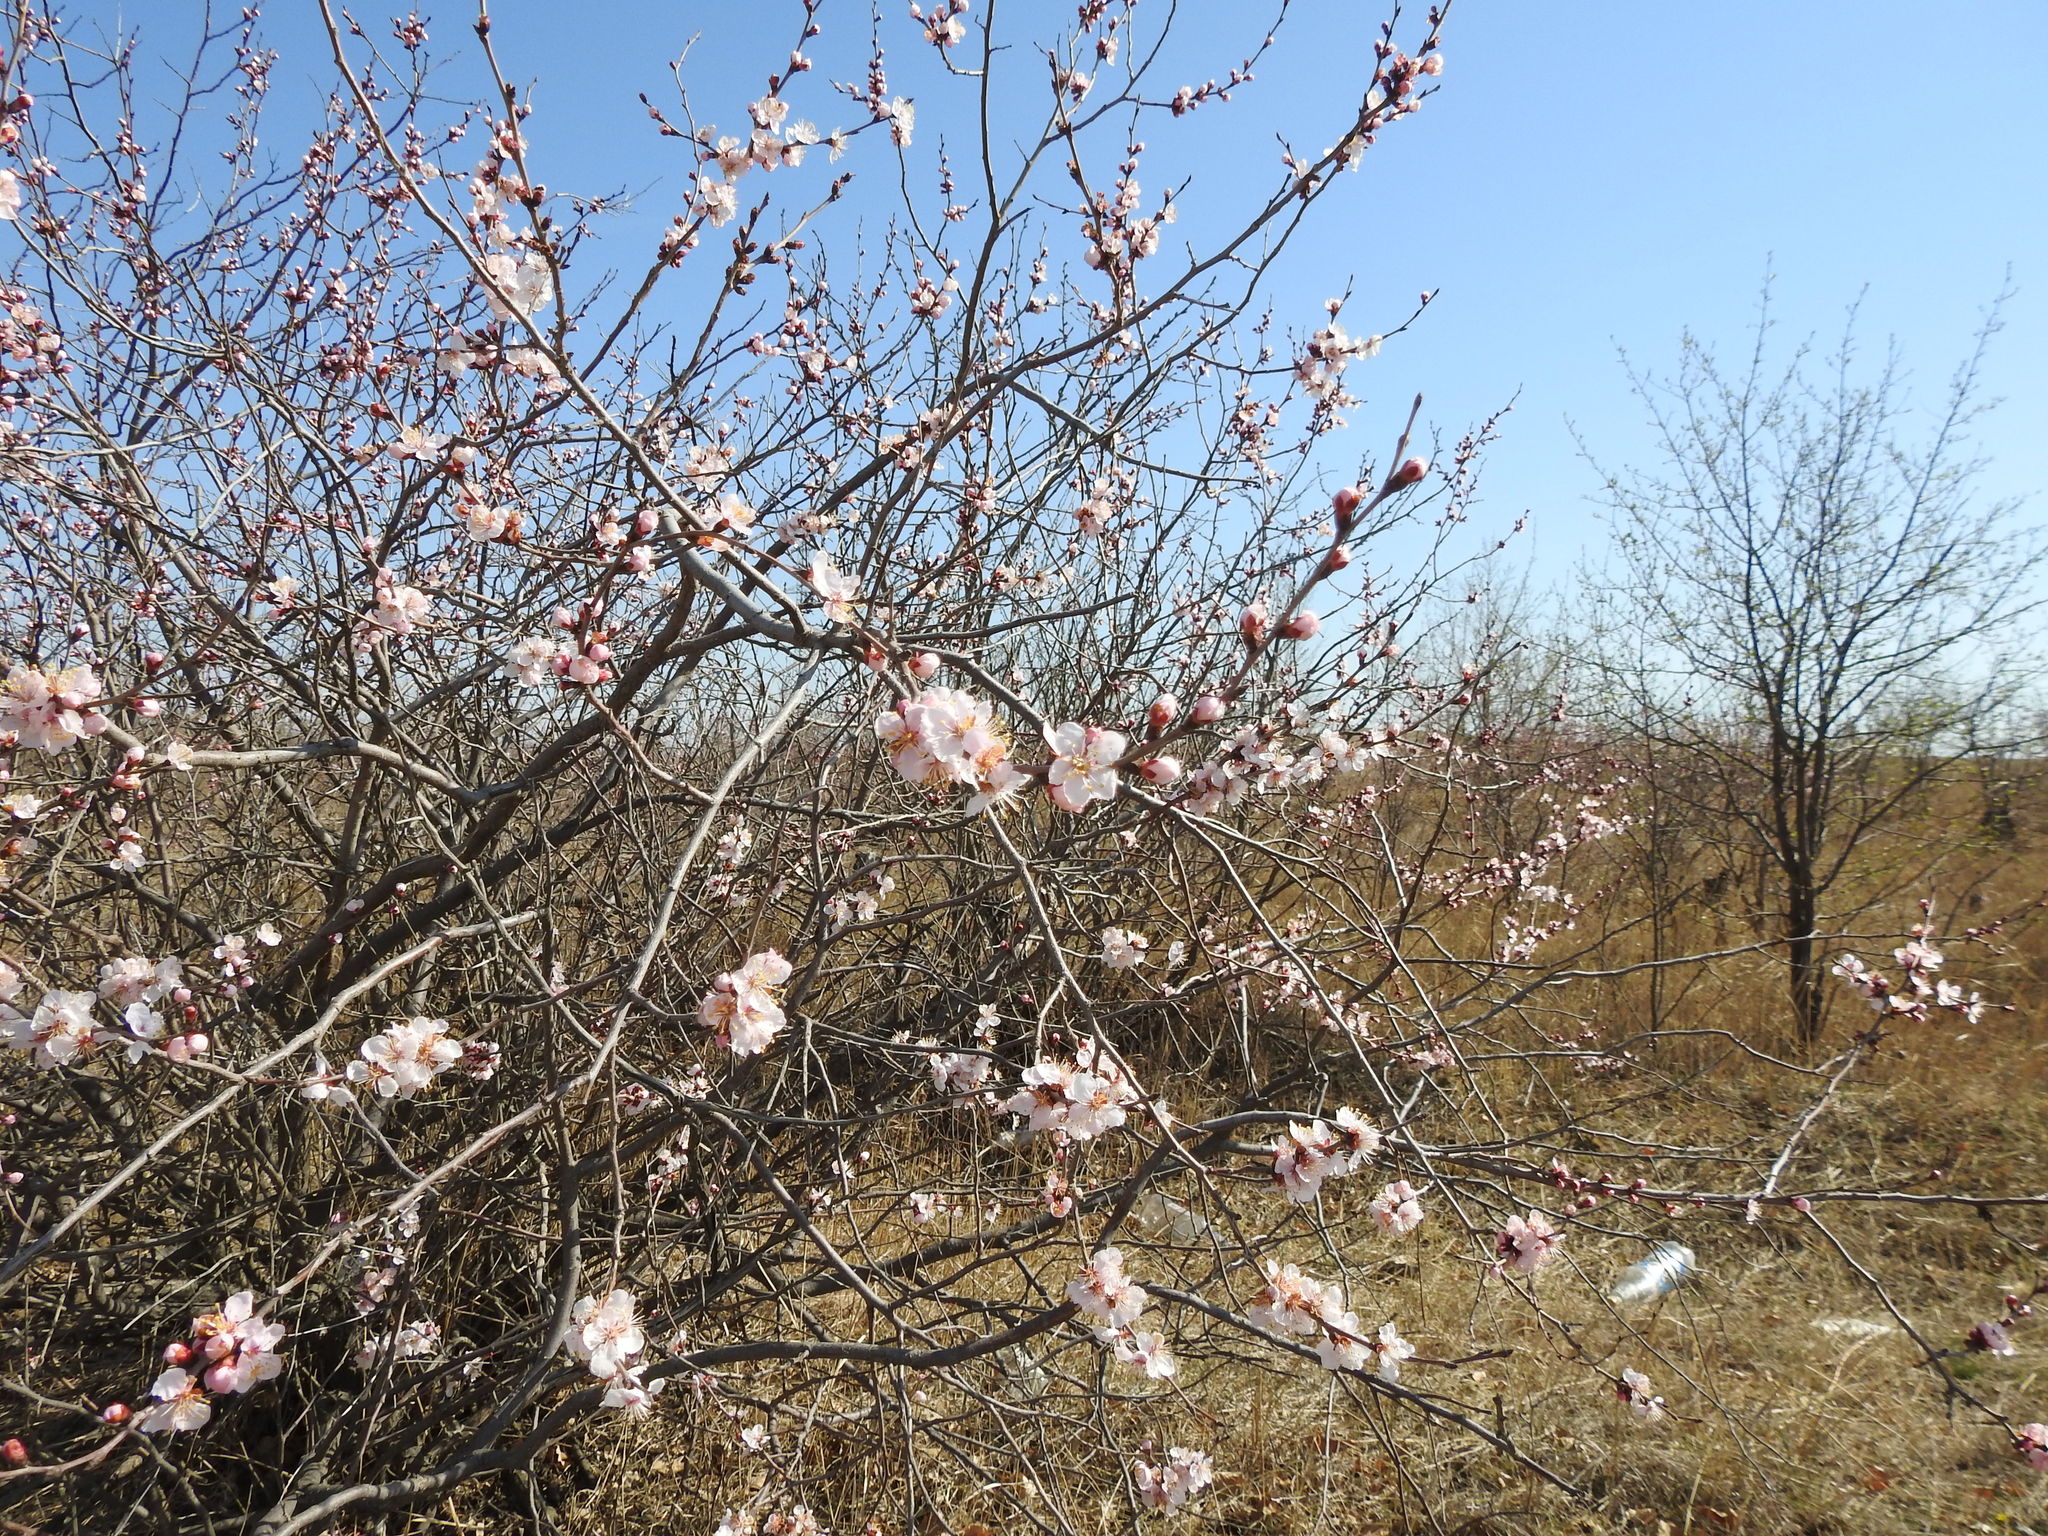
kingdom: Plantae
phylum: Tracheophyta
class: Magnoliopsida
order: Rosales
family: Rosaceae
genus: Prunus
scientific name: Prunus sibirica
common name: Siberian apricot
